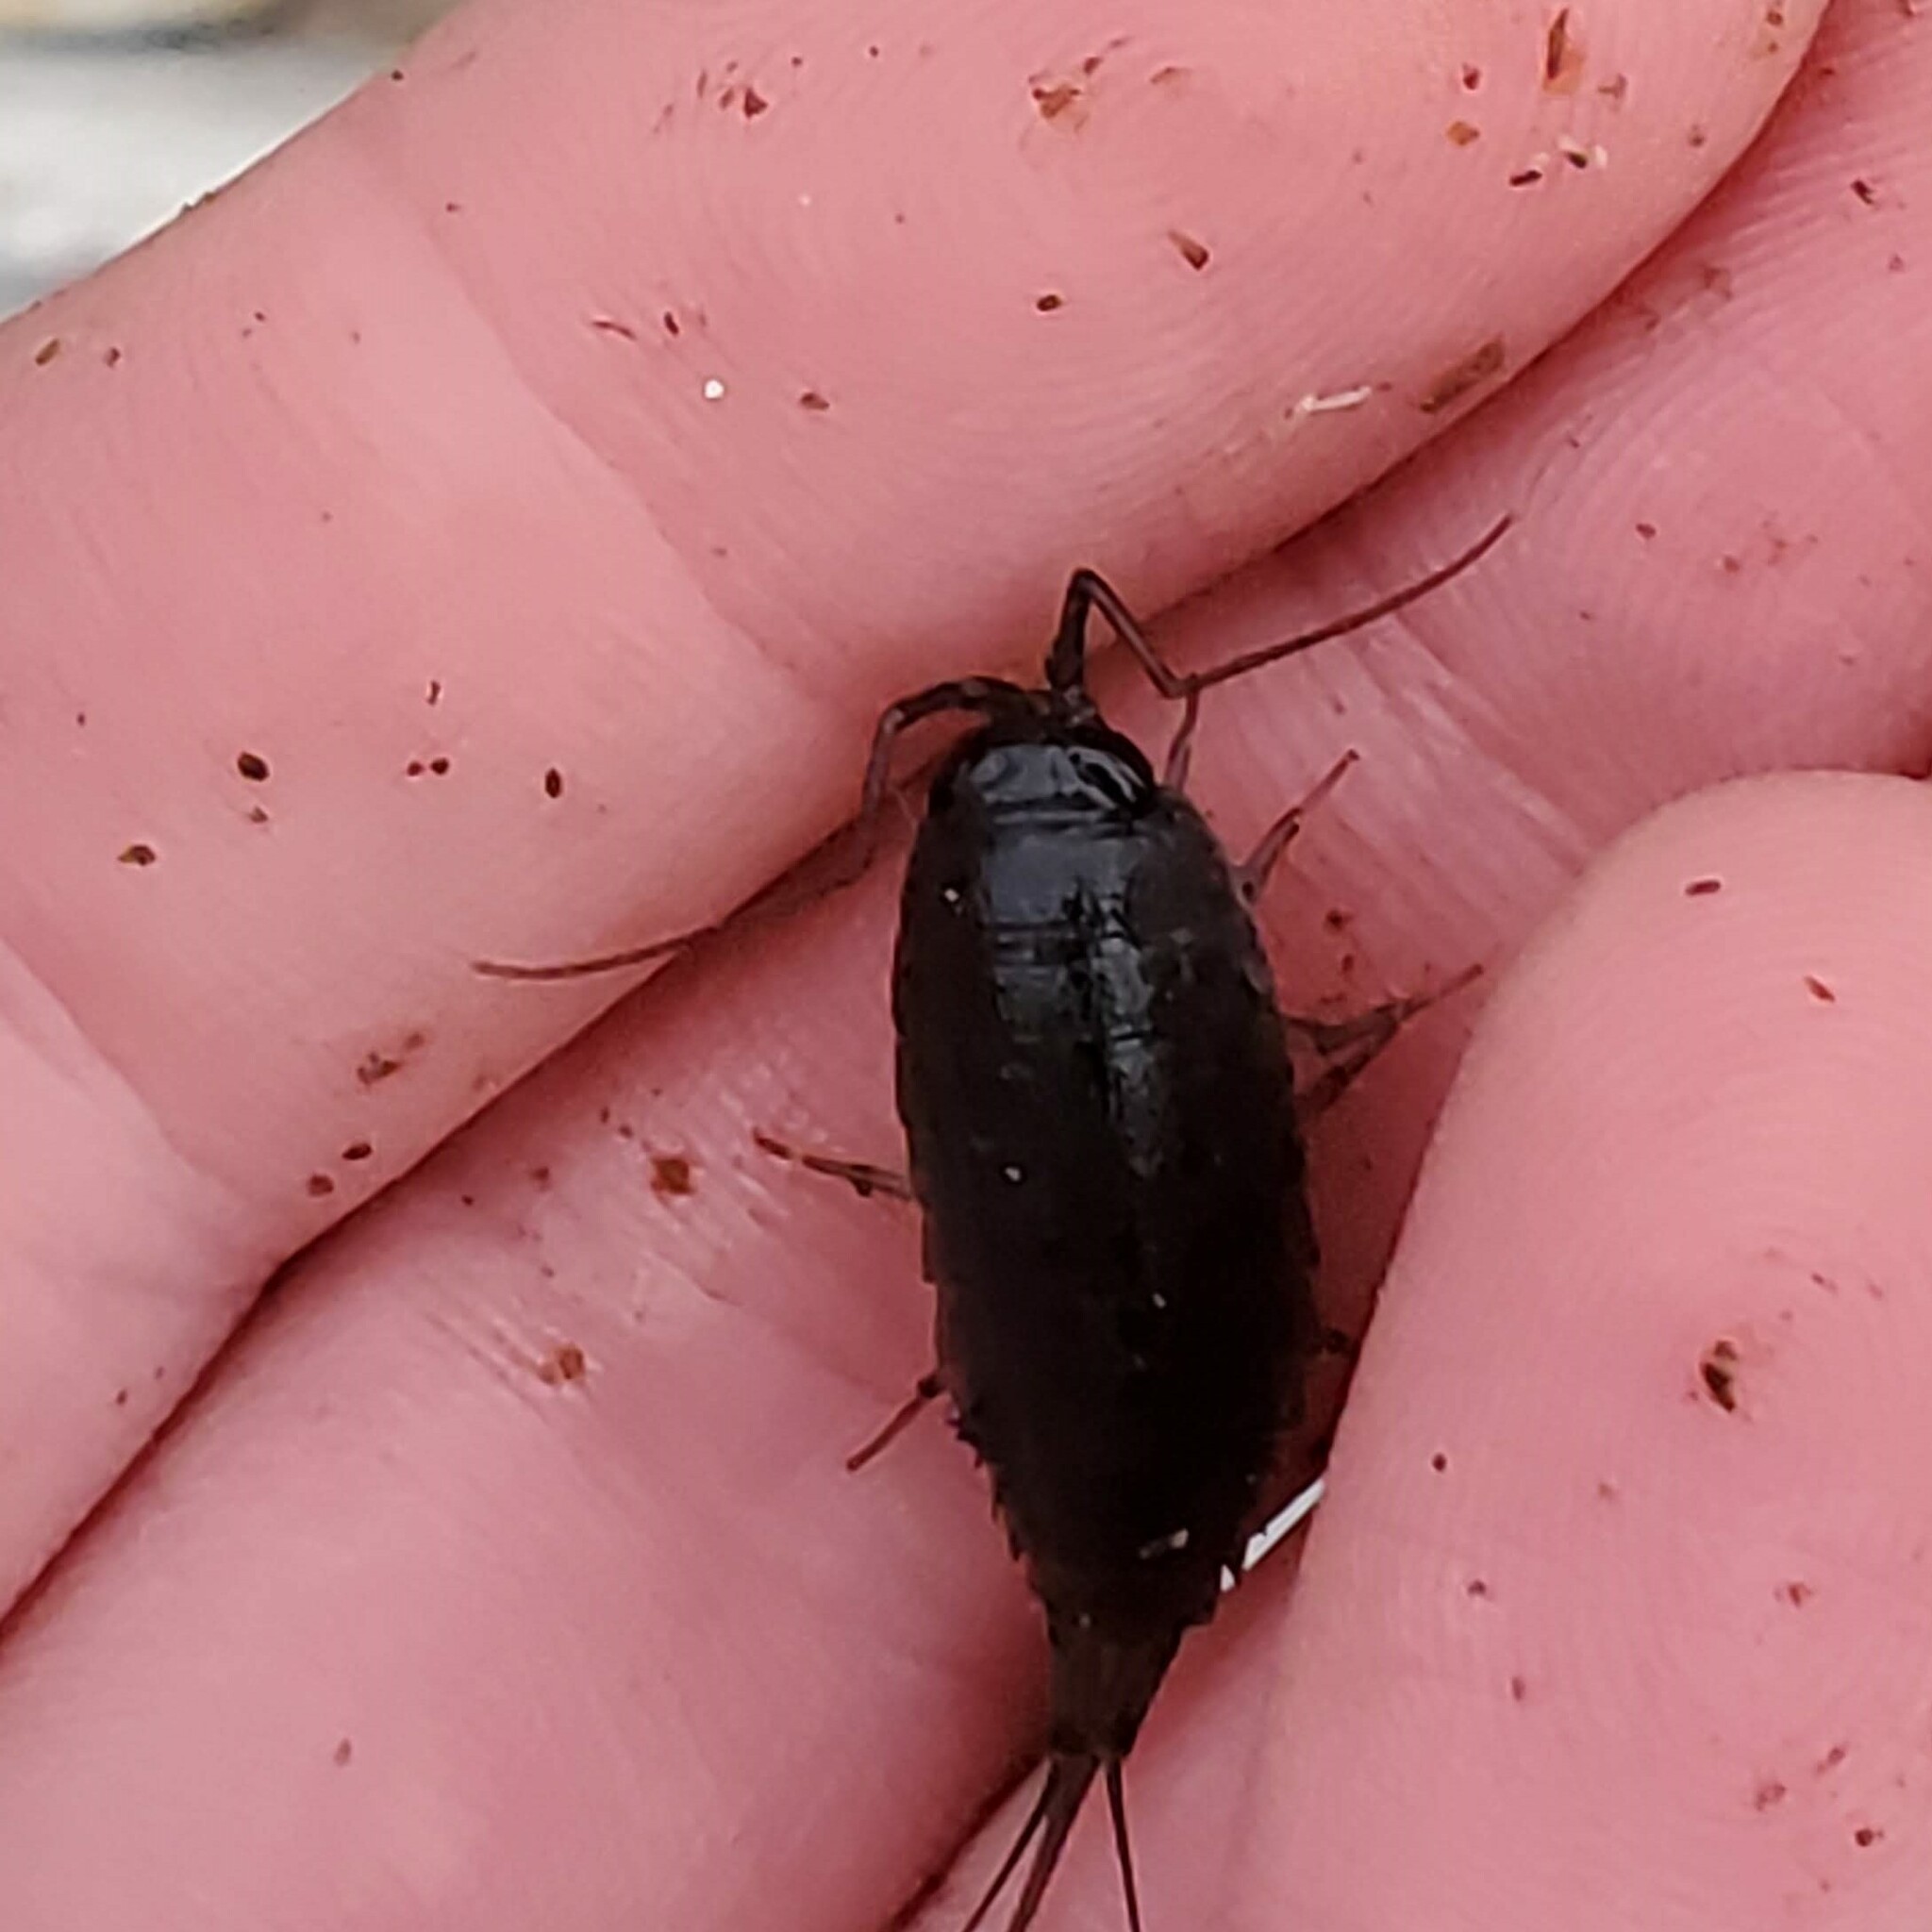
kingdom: Animalia
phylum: Arthropoda
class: Malacostraca
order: Isopoda
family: Ligiidae
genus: Ligia
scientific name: Ligia occidentalis
